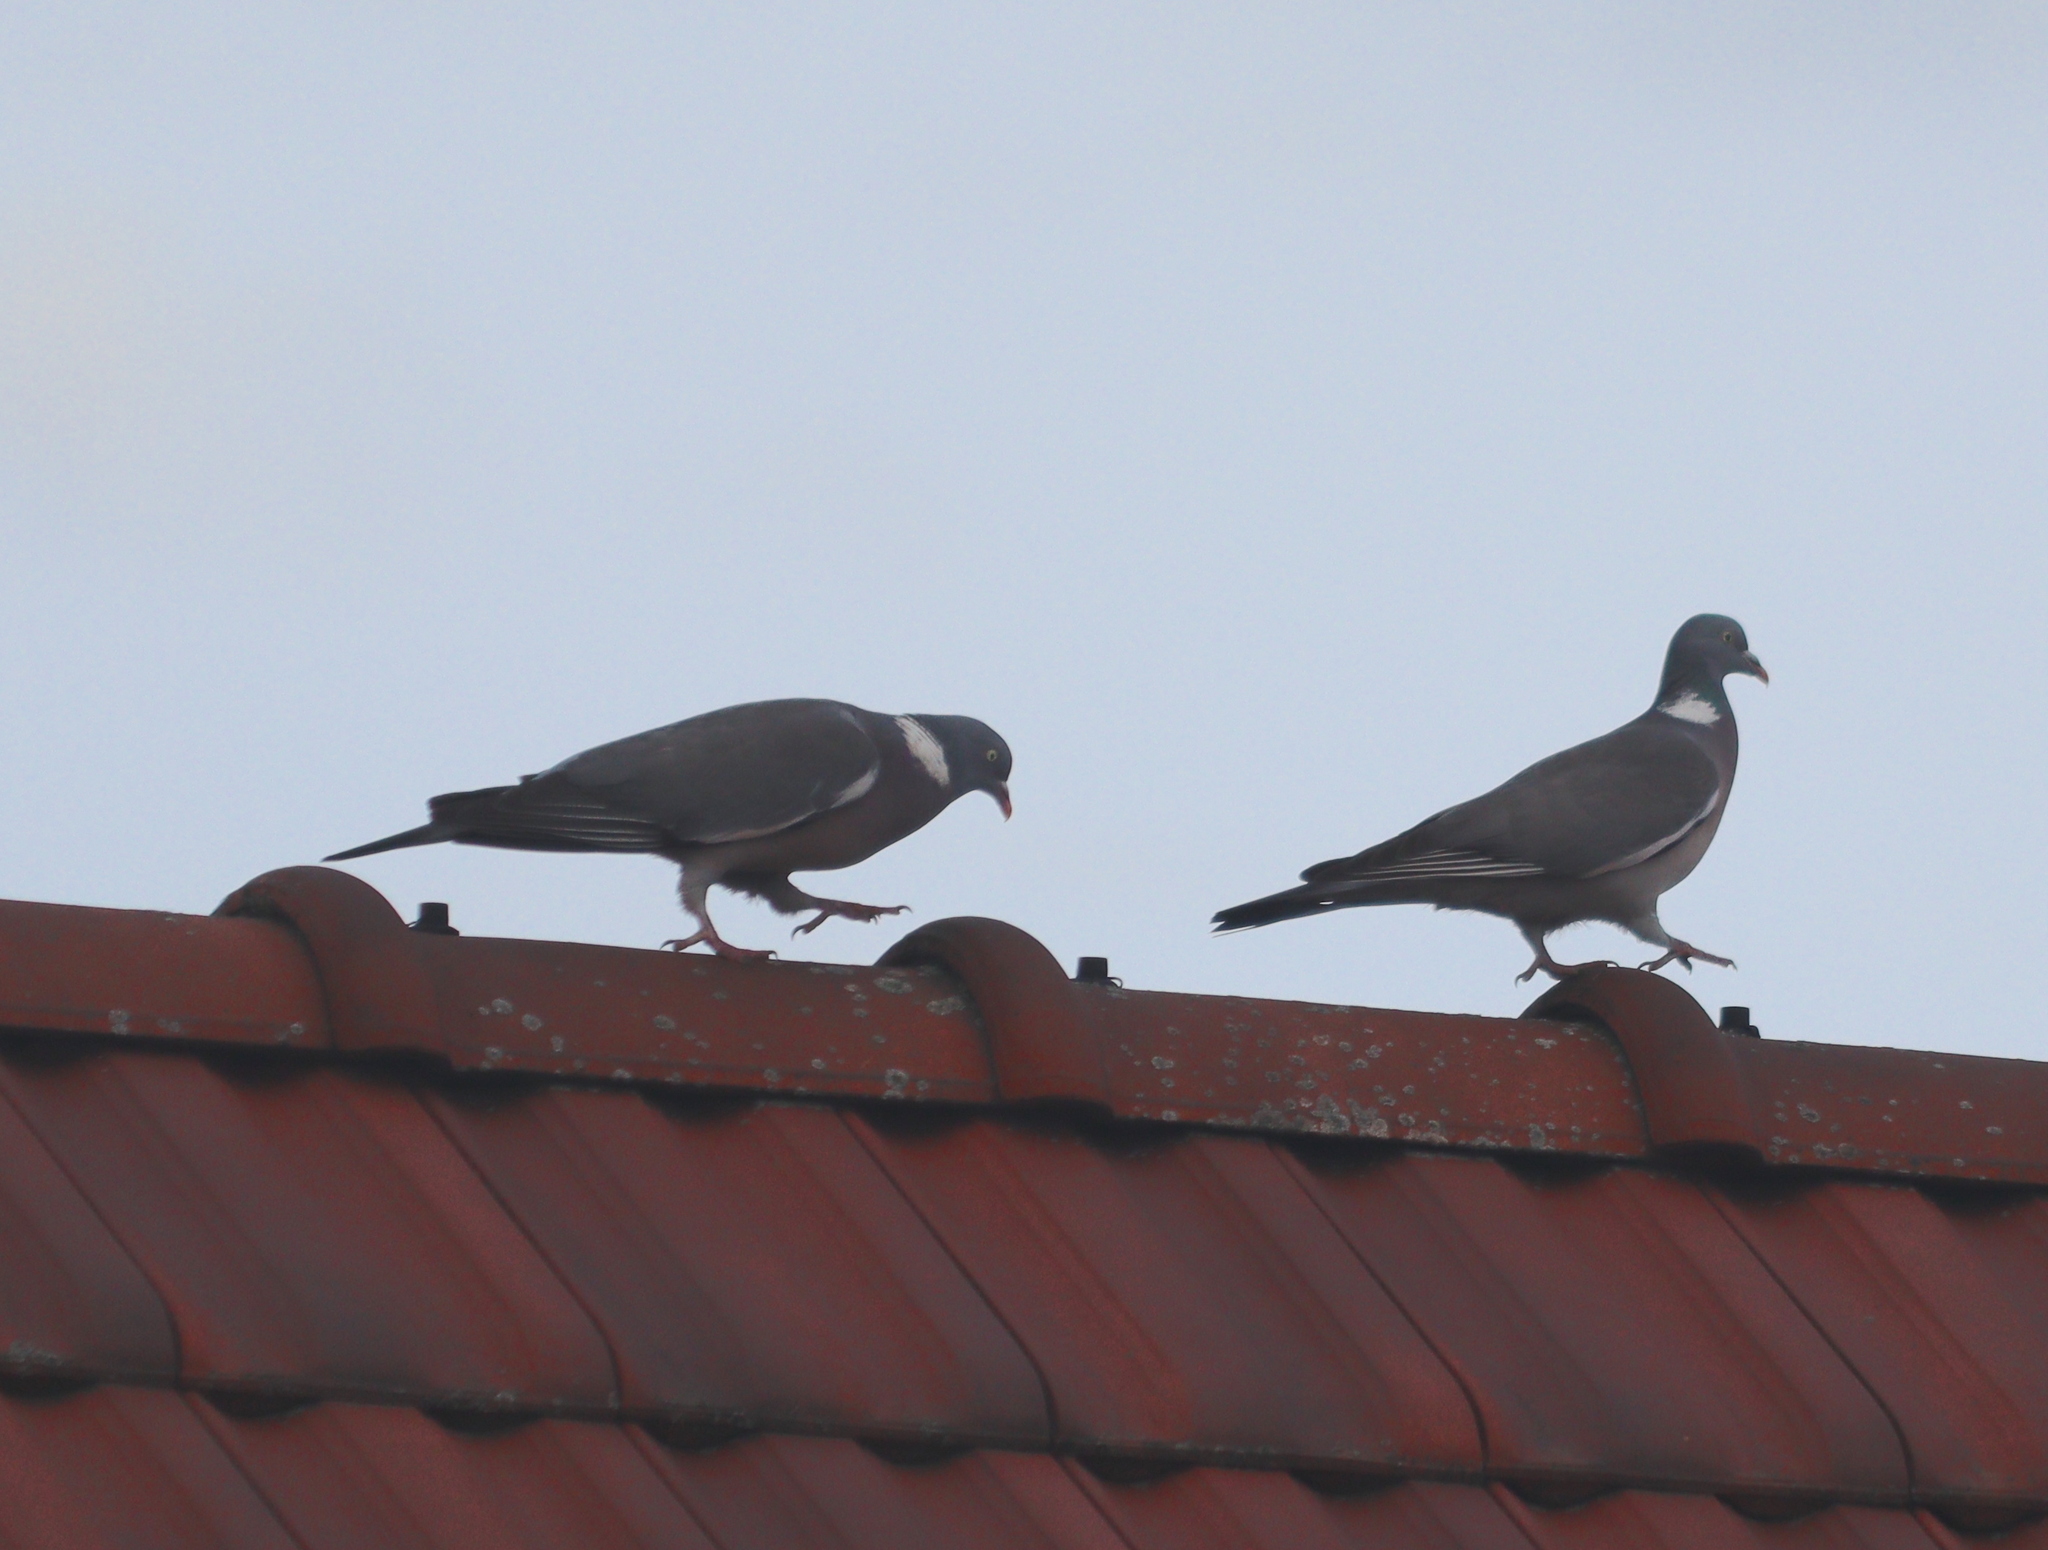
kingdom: Animalia
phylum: Chordata
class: Aves
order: Columbiformes
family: Columbidae
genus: Columba
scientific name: Columba palumbus
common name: Common wood pigeon
